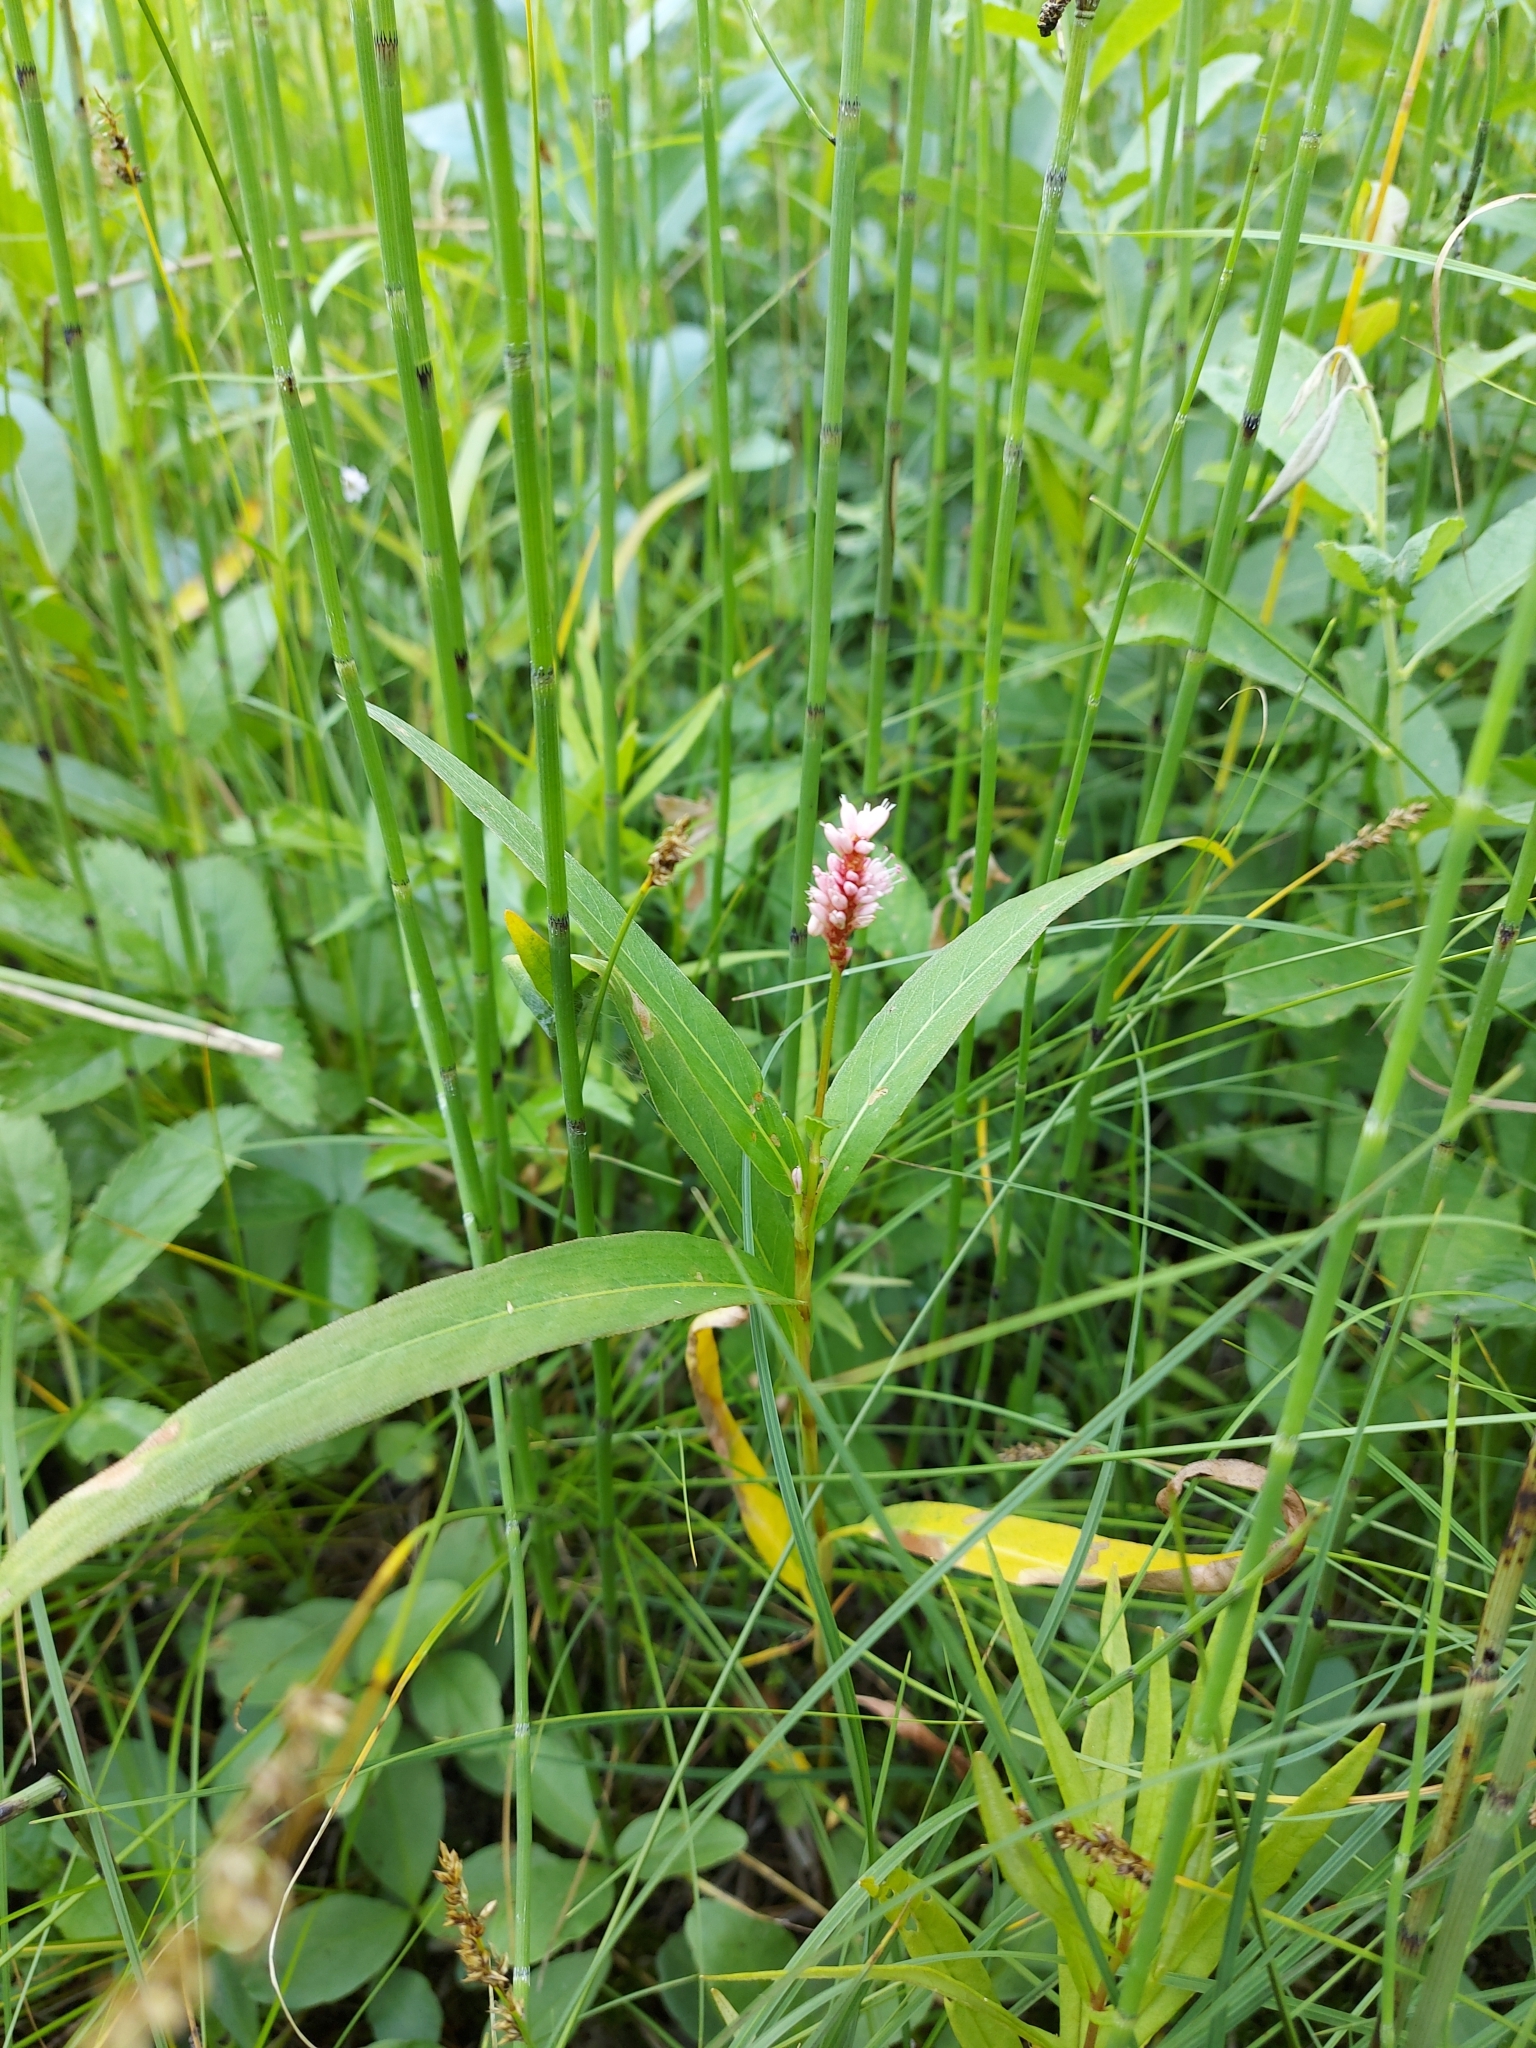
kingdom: Plantae
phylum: Tracheophyta
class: Magnoliopsida
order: Caryophyllales
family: Polygonaceae
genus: Persicaria
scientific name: Persicaria amphibia
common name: Amphibious bistort
